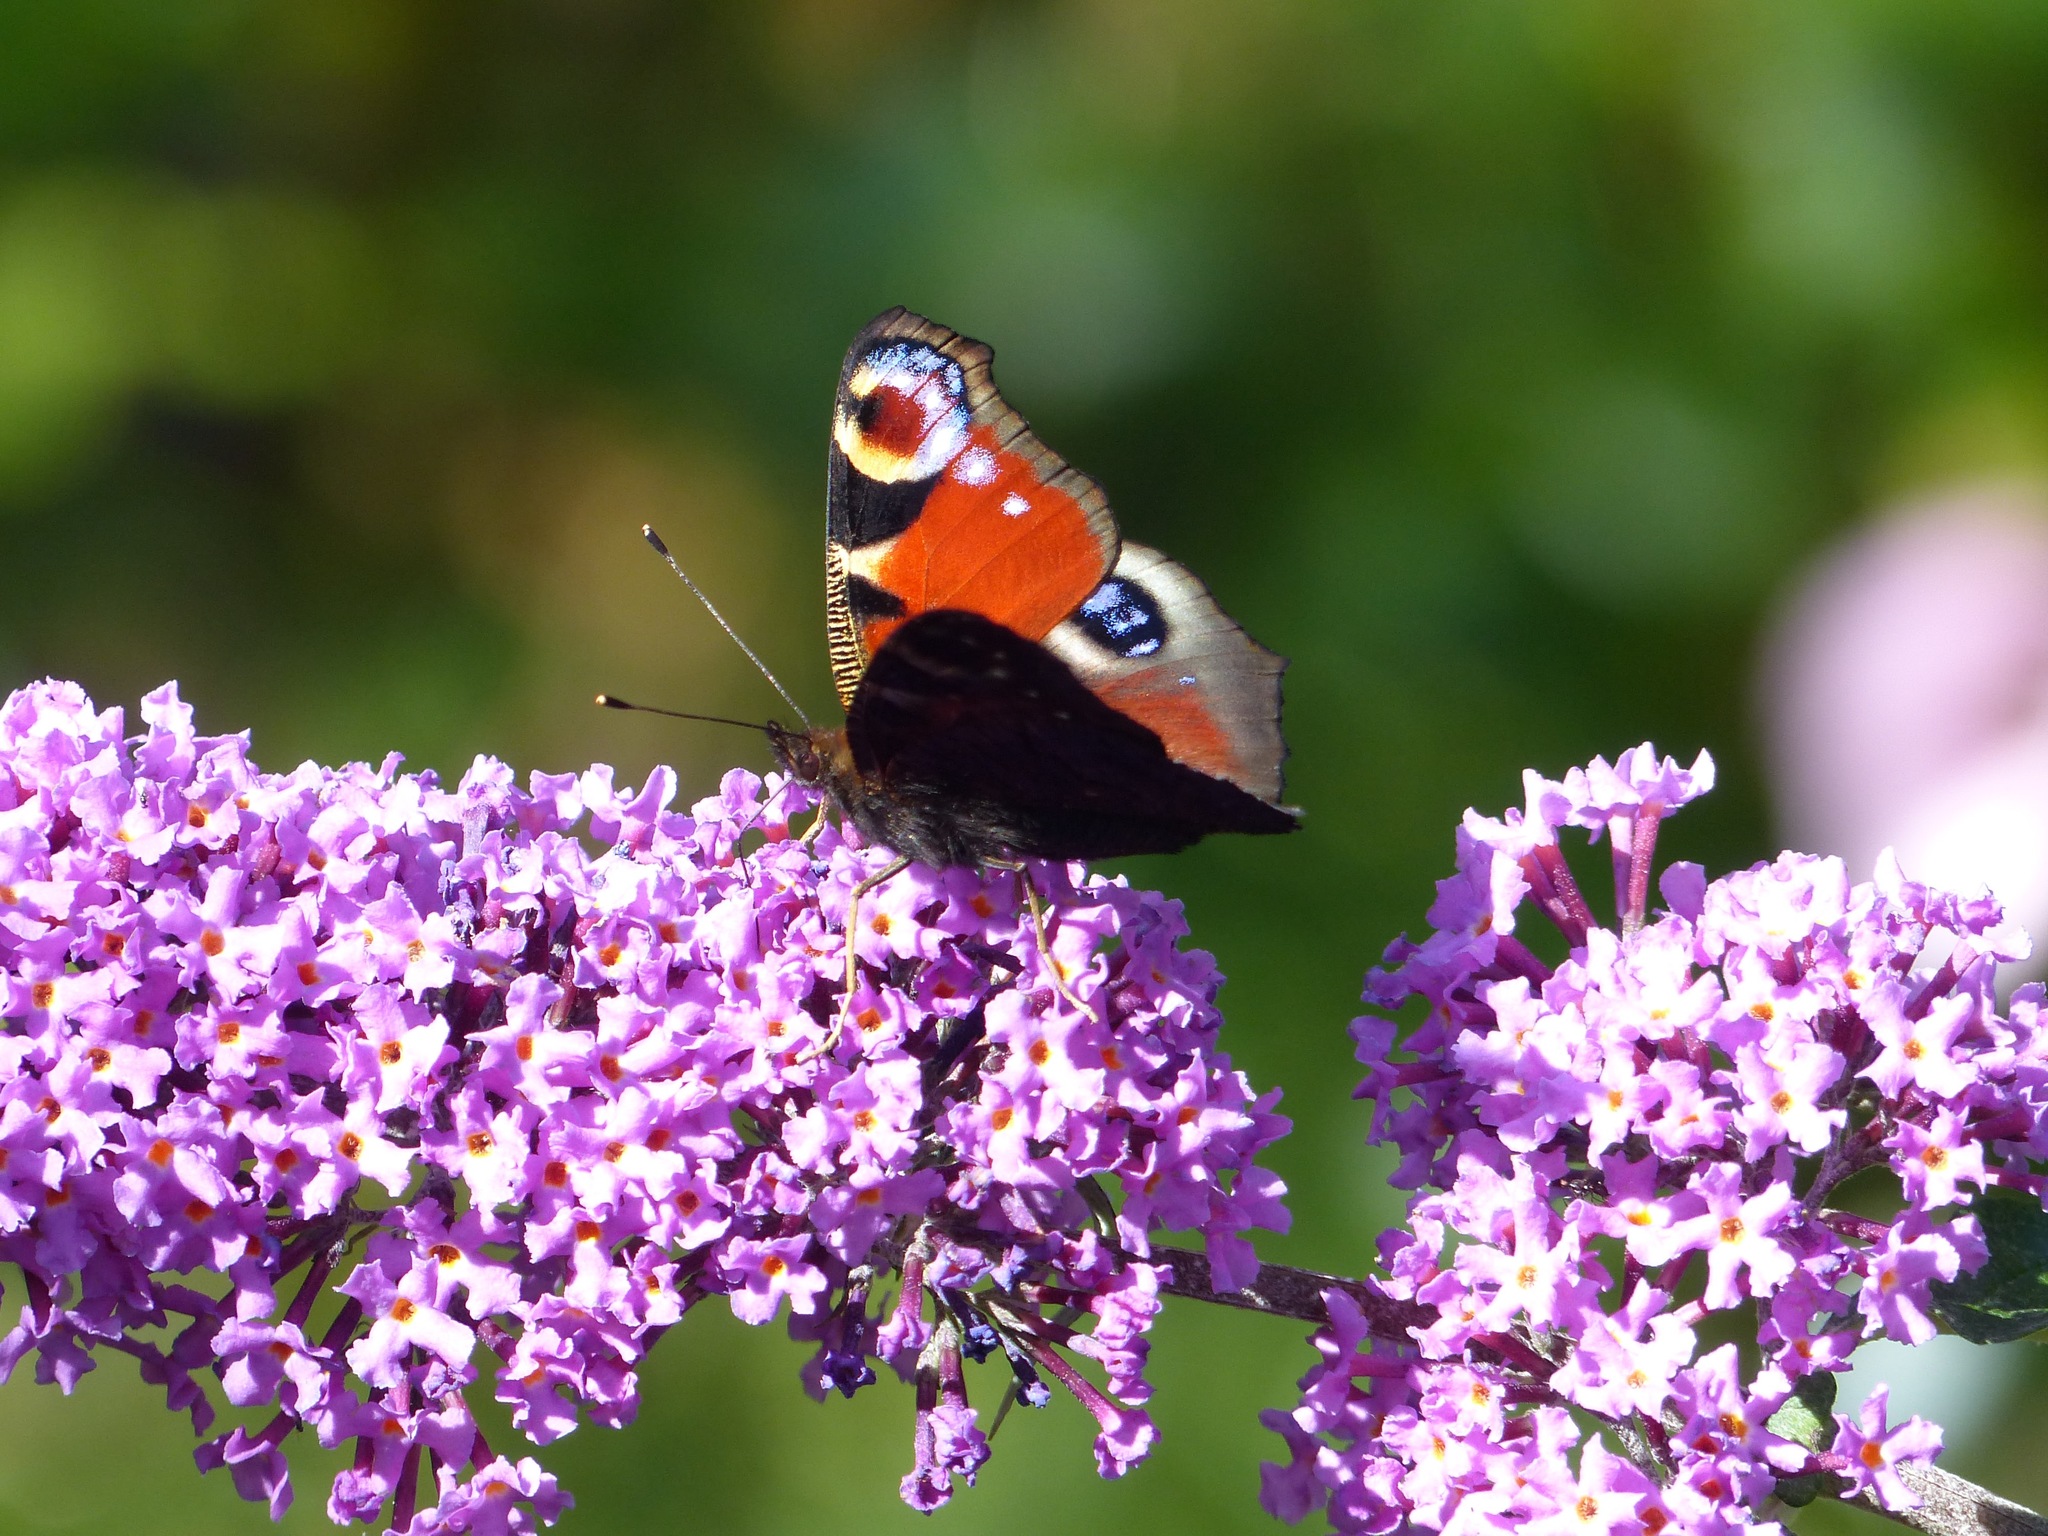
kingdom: Animalia
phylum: Arthropoda
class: Insecta
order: Lepidoptera
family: Nymphalidae
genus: Aglais
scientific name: Aglais io
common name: Peacock
